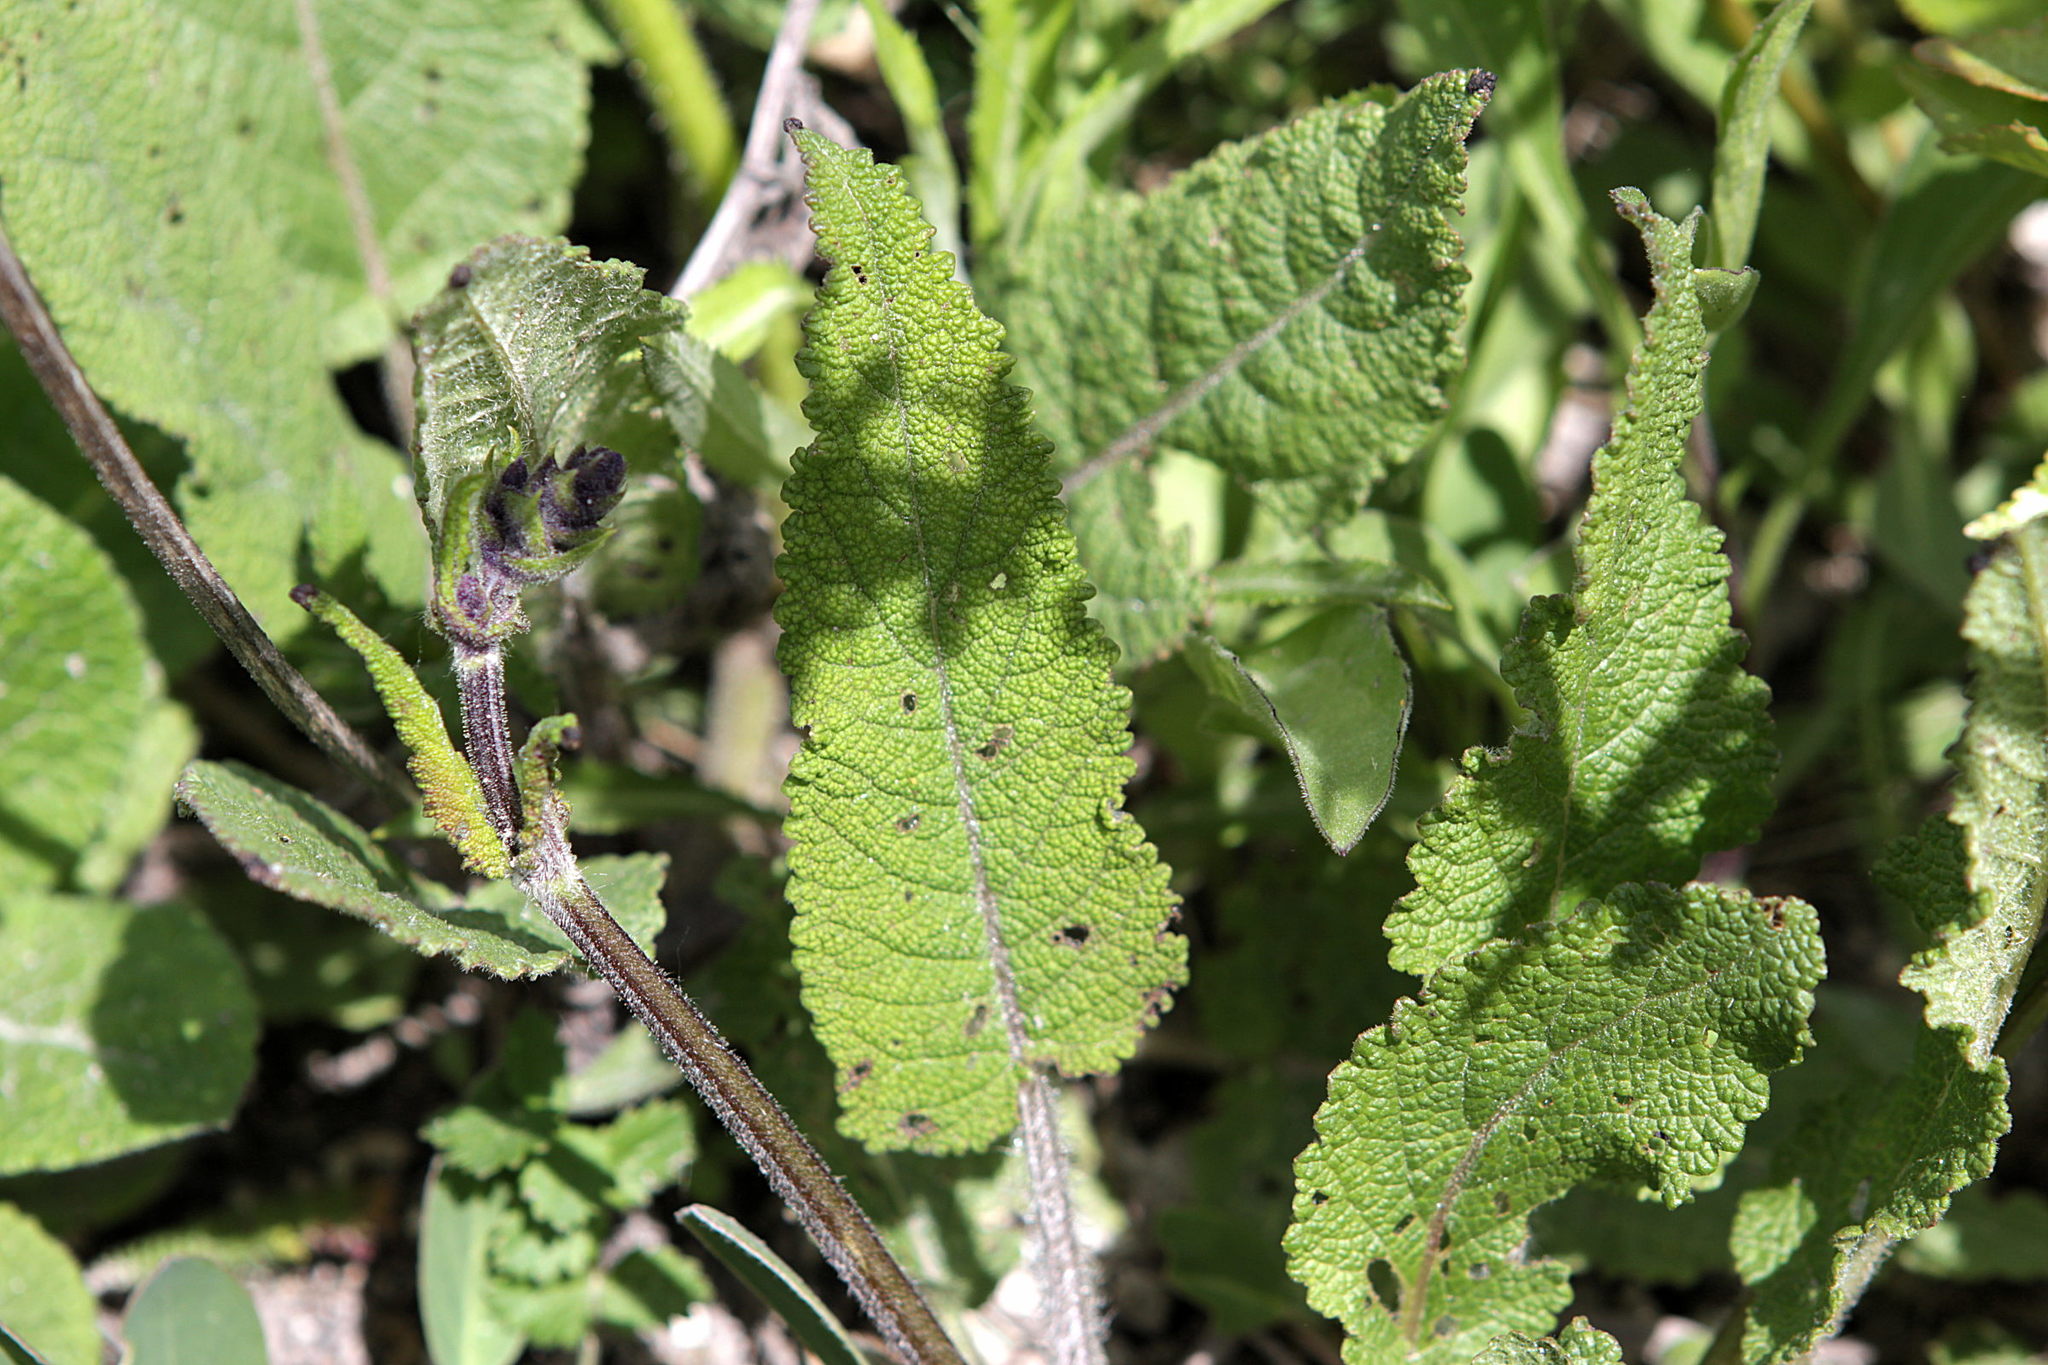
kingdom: Plantae
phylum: Tracheophyta
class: Magnoliopsida
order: Lamiales
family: Lamiaceae
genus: Salvia
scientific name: Salvia pratensis
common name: Meadow sage
